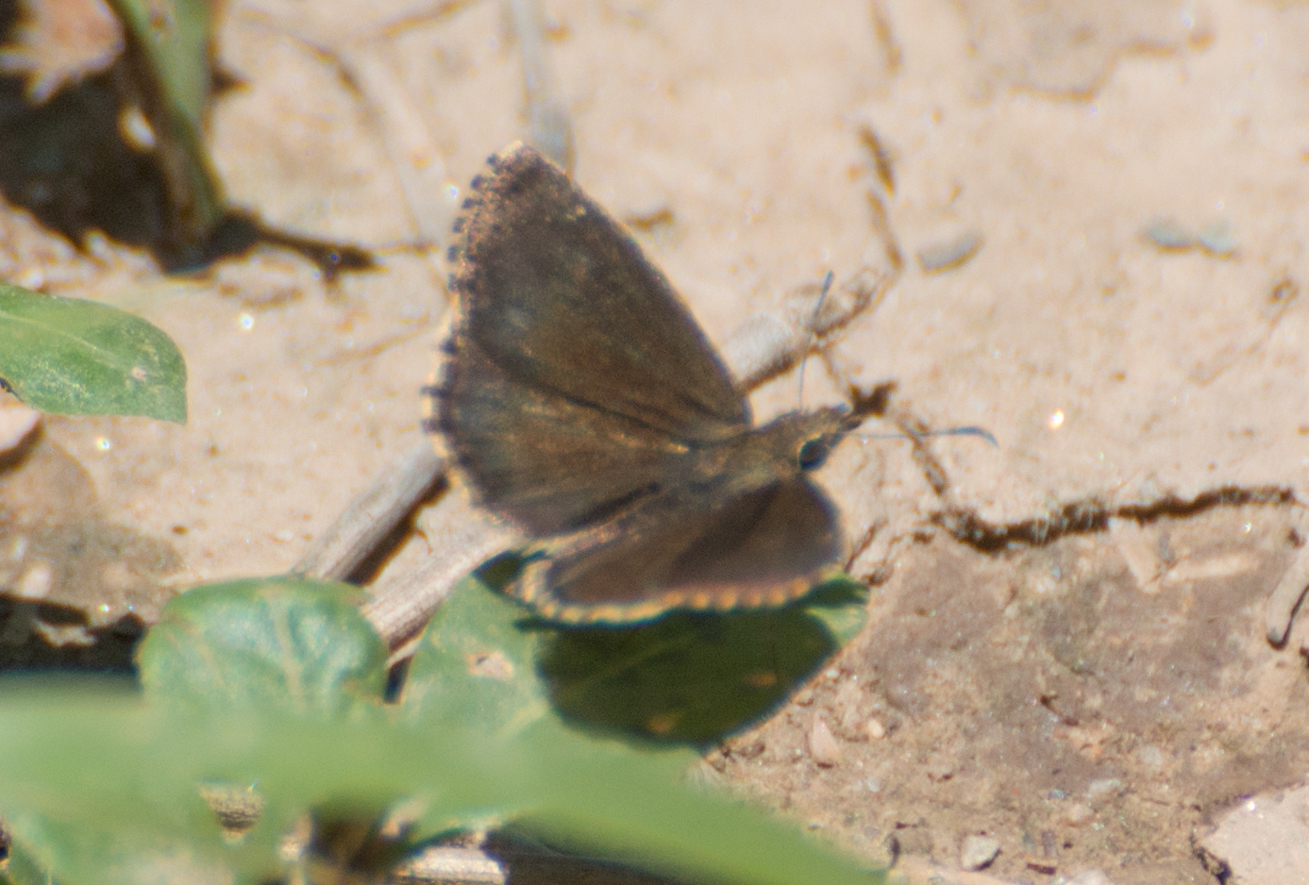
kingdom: Animalia
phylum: Arthropoda
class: Insecta
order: Lepidoptera
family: Hesperiidae
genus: Zopyrion
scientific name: Zopyrion evenor
